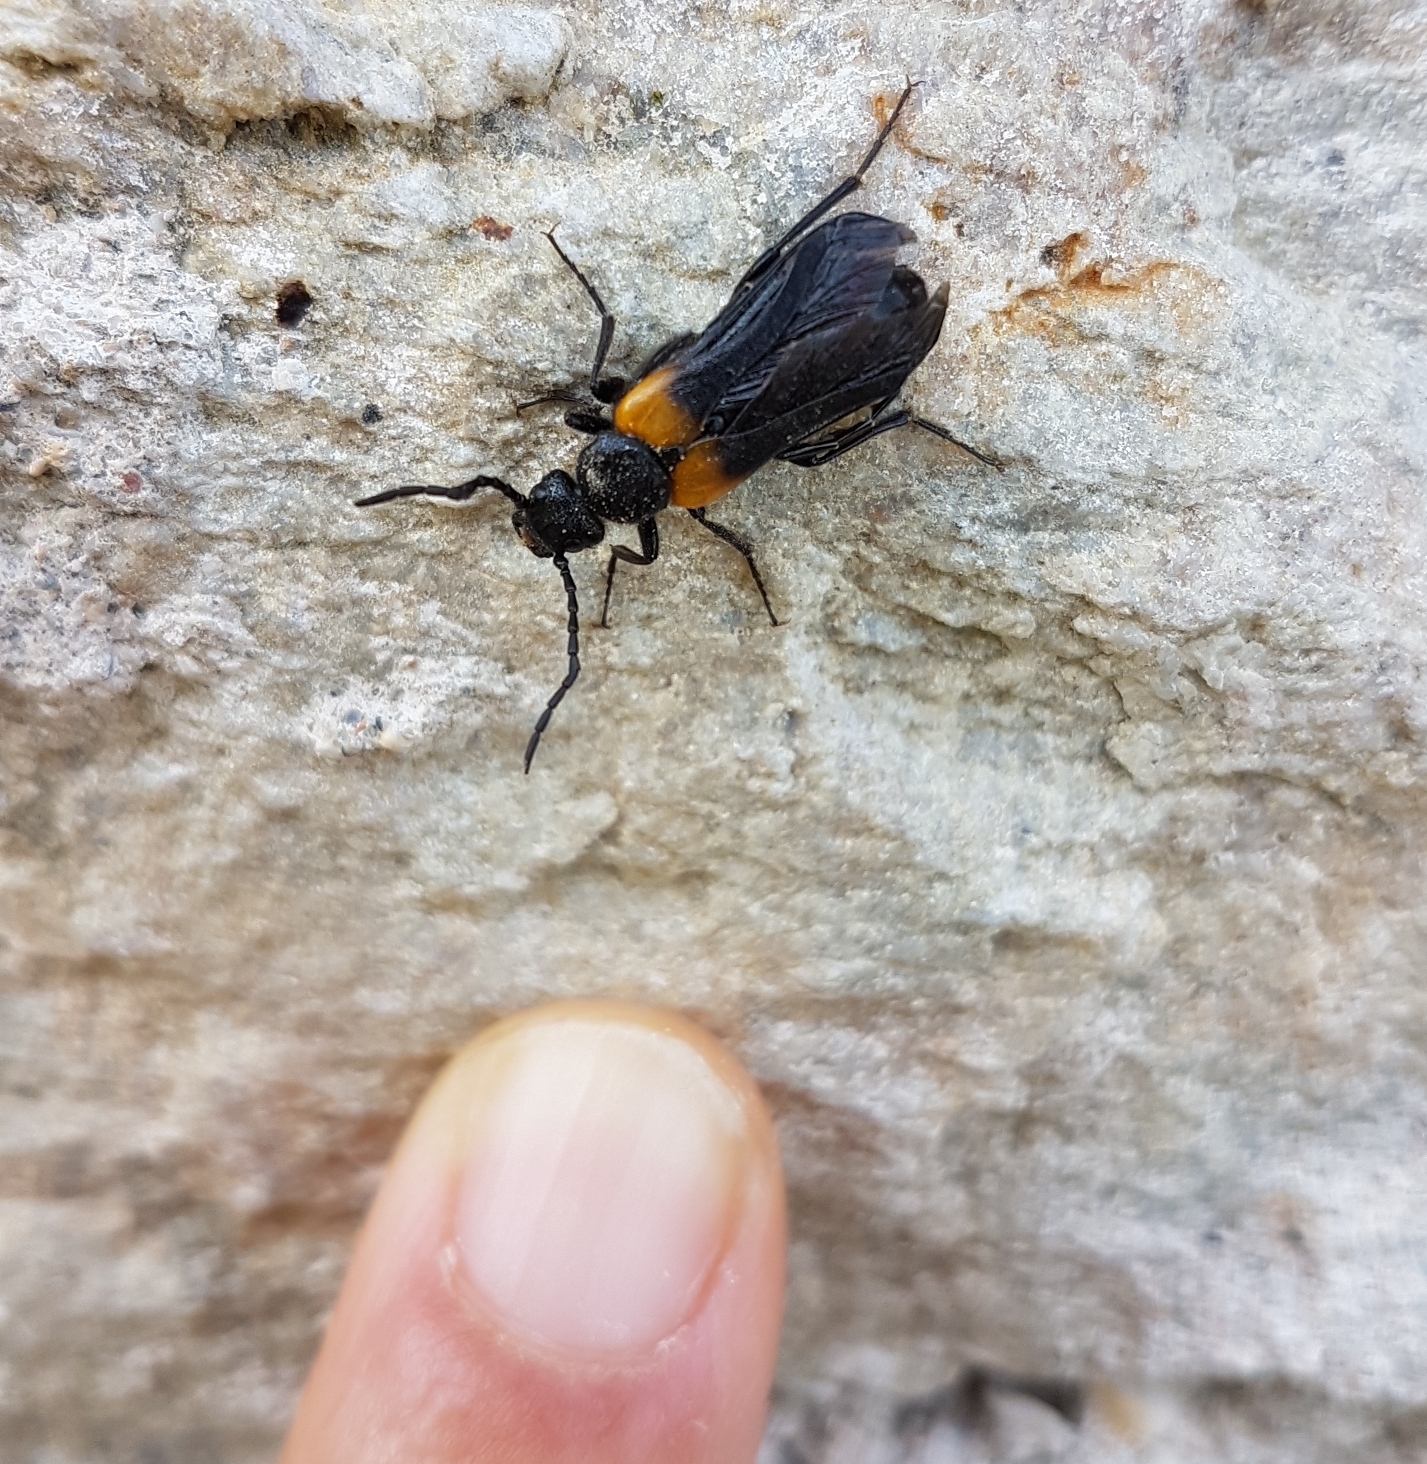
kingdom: Animalia
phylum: Arthropoda
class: Insecta
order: Coleoptera
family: Meloidae
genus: Sitaris
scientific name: Sitaris muralis
